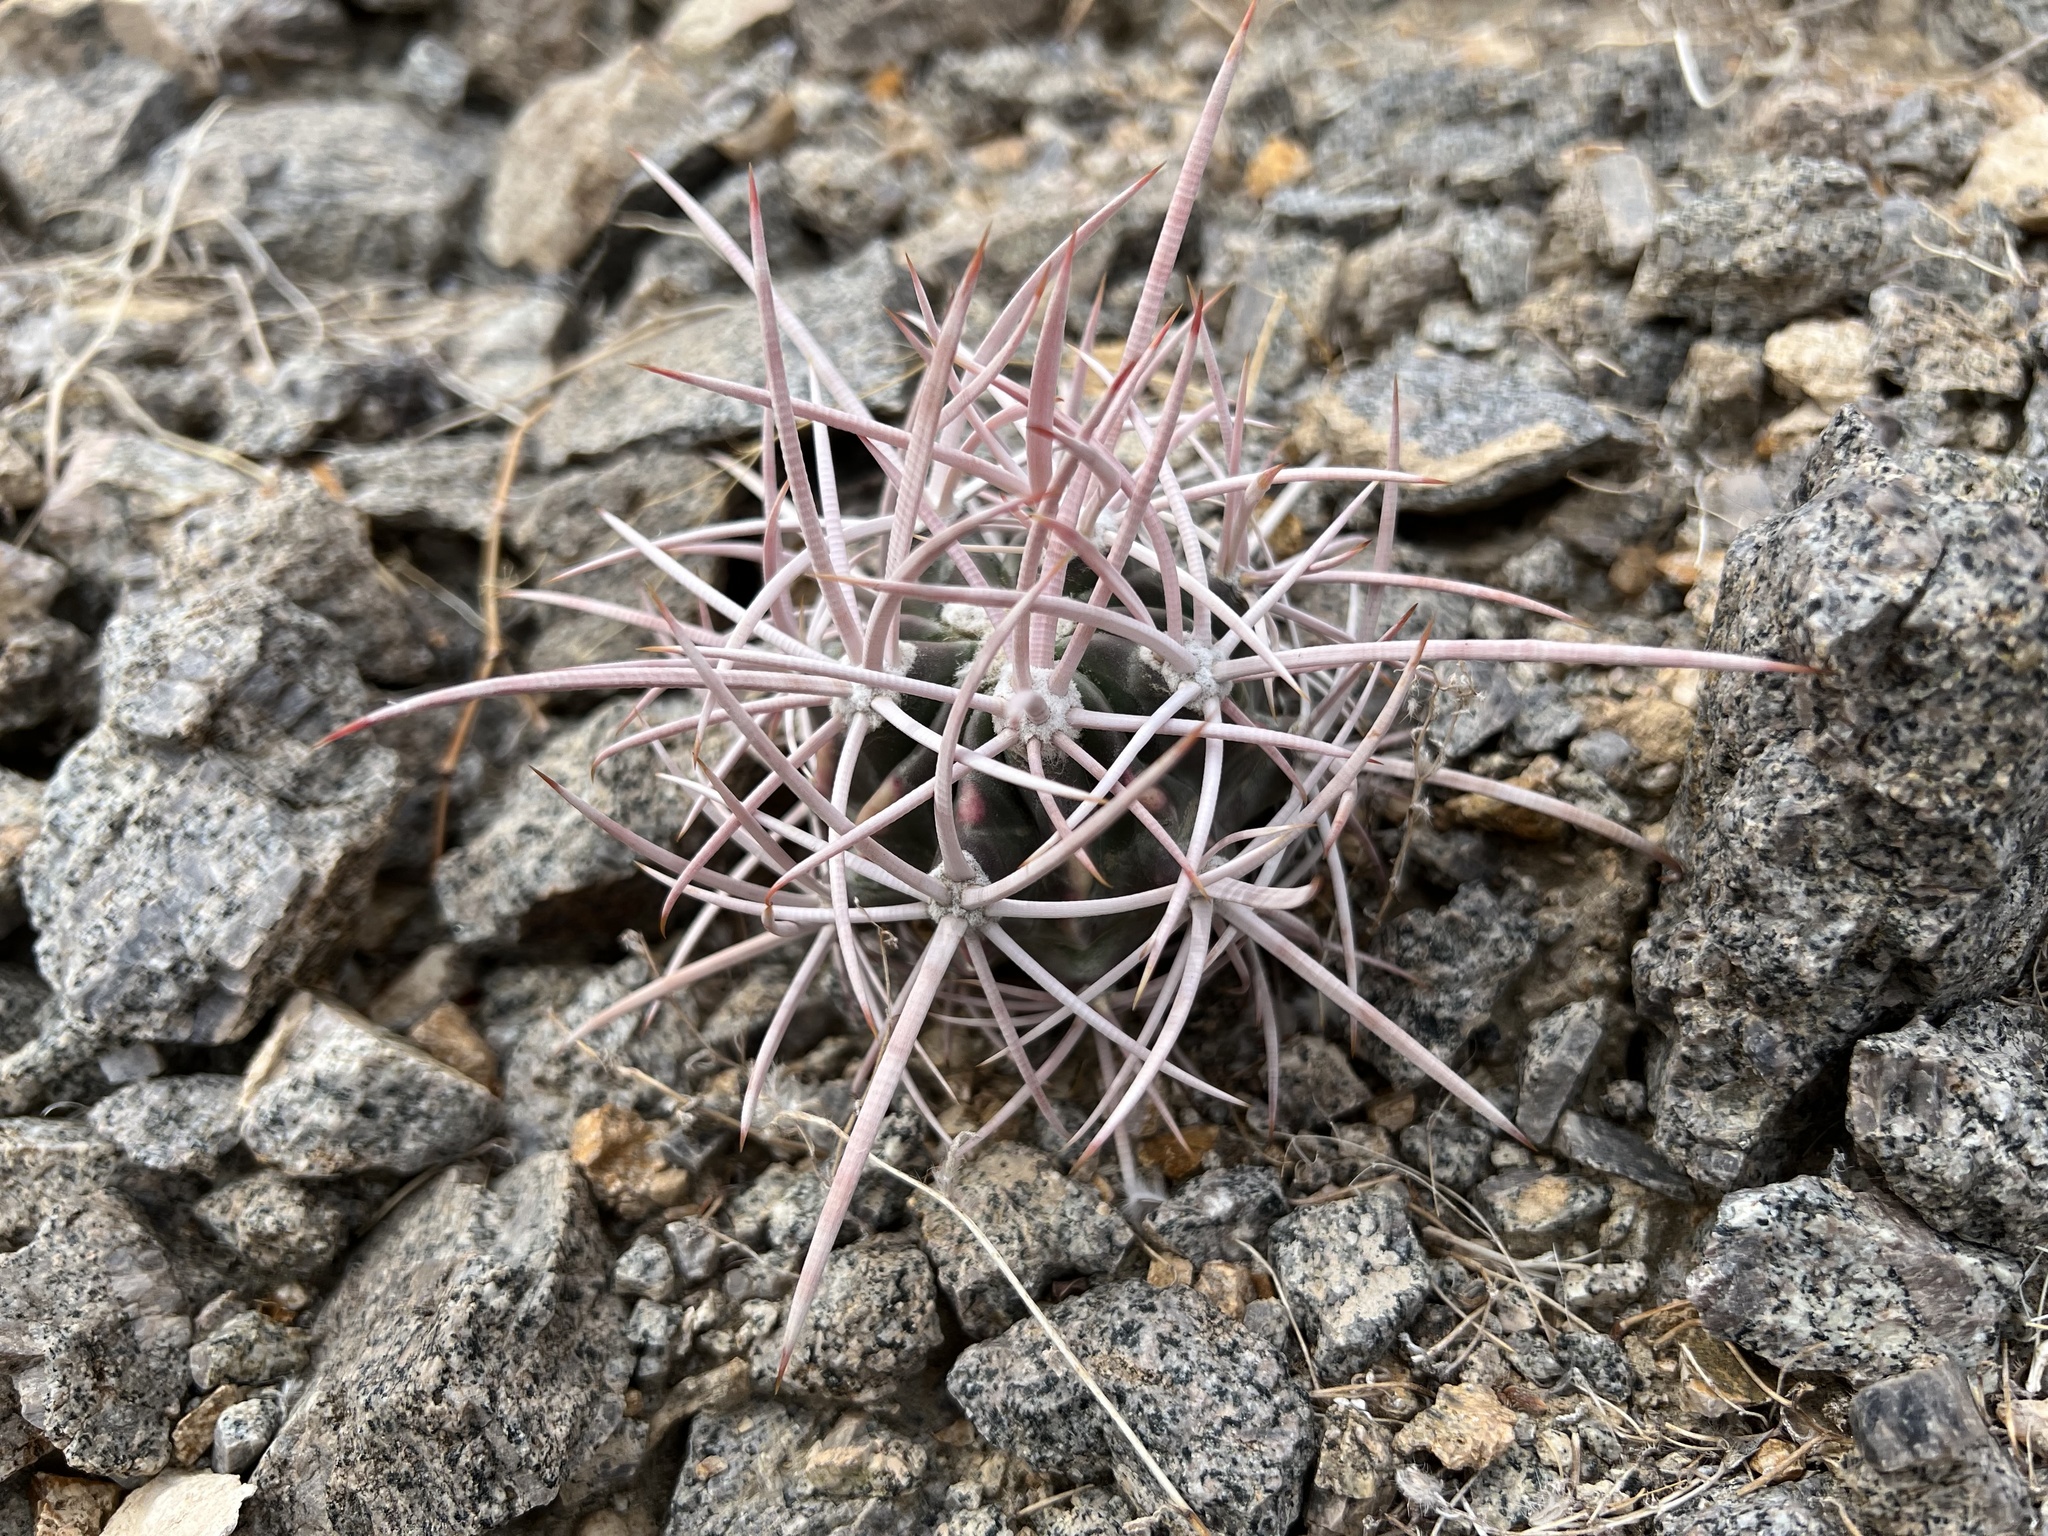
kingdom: Plantae
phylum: Tracheophyta
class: Magnoliopsida
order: Caryophyllales
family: Cactaceae
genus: Echinocactus
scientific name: Echinocactus polycephalus
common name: Cottontop cactus
